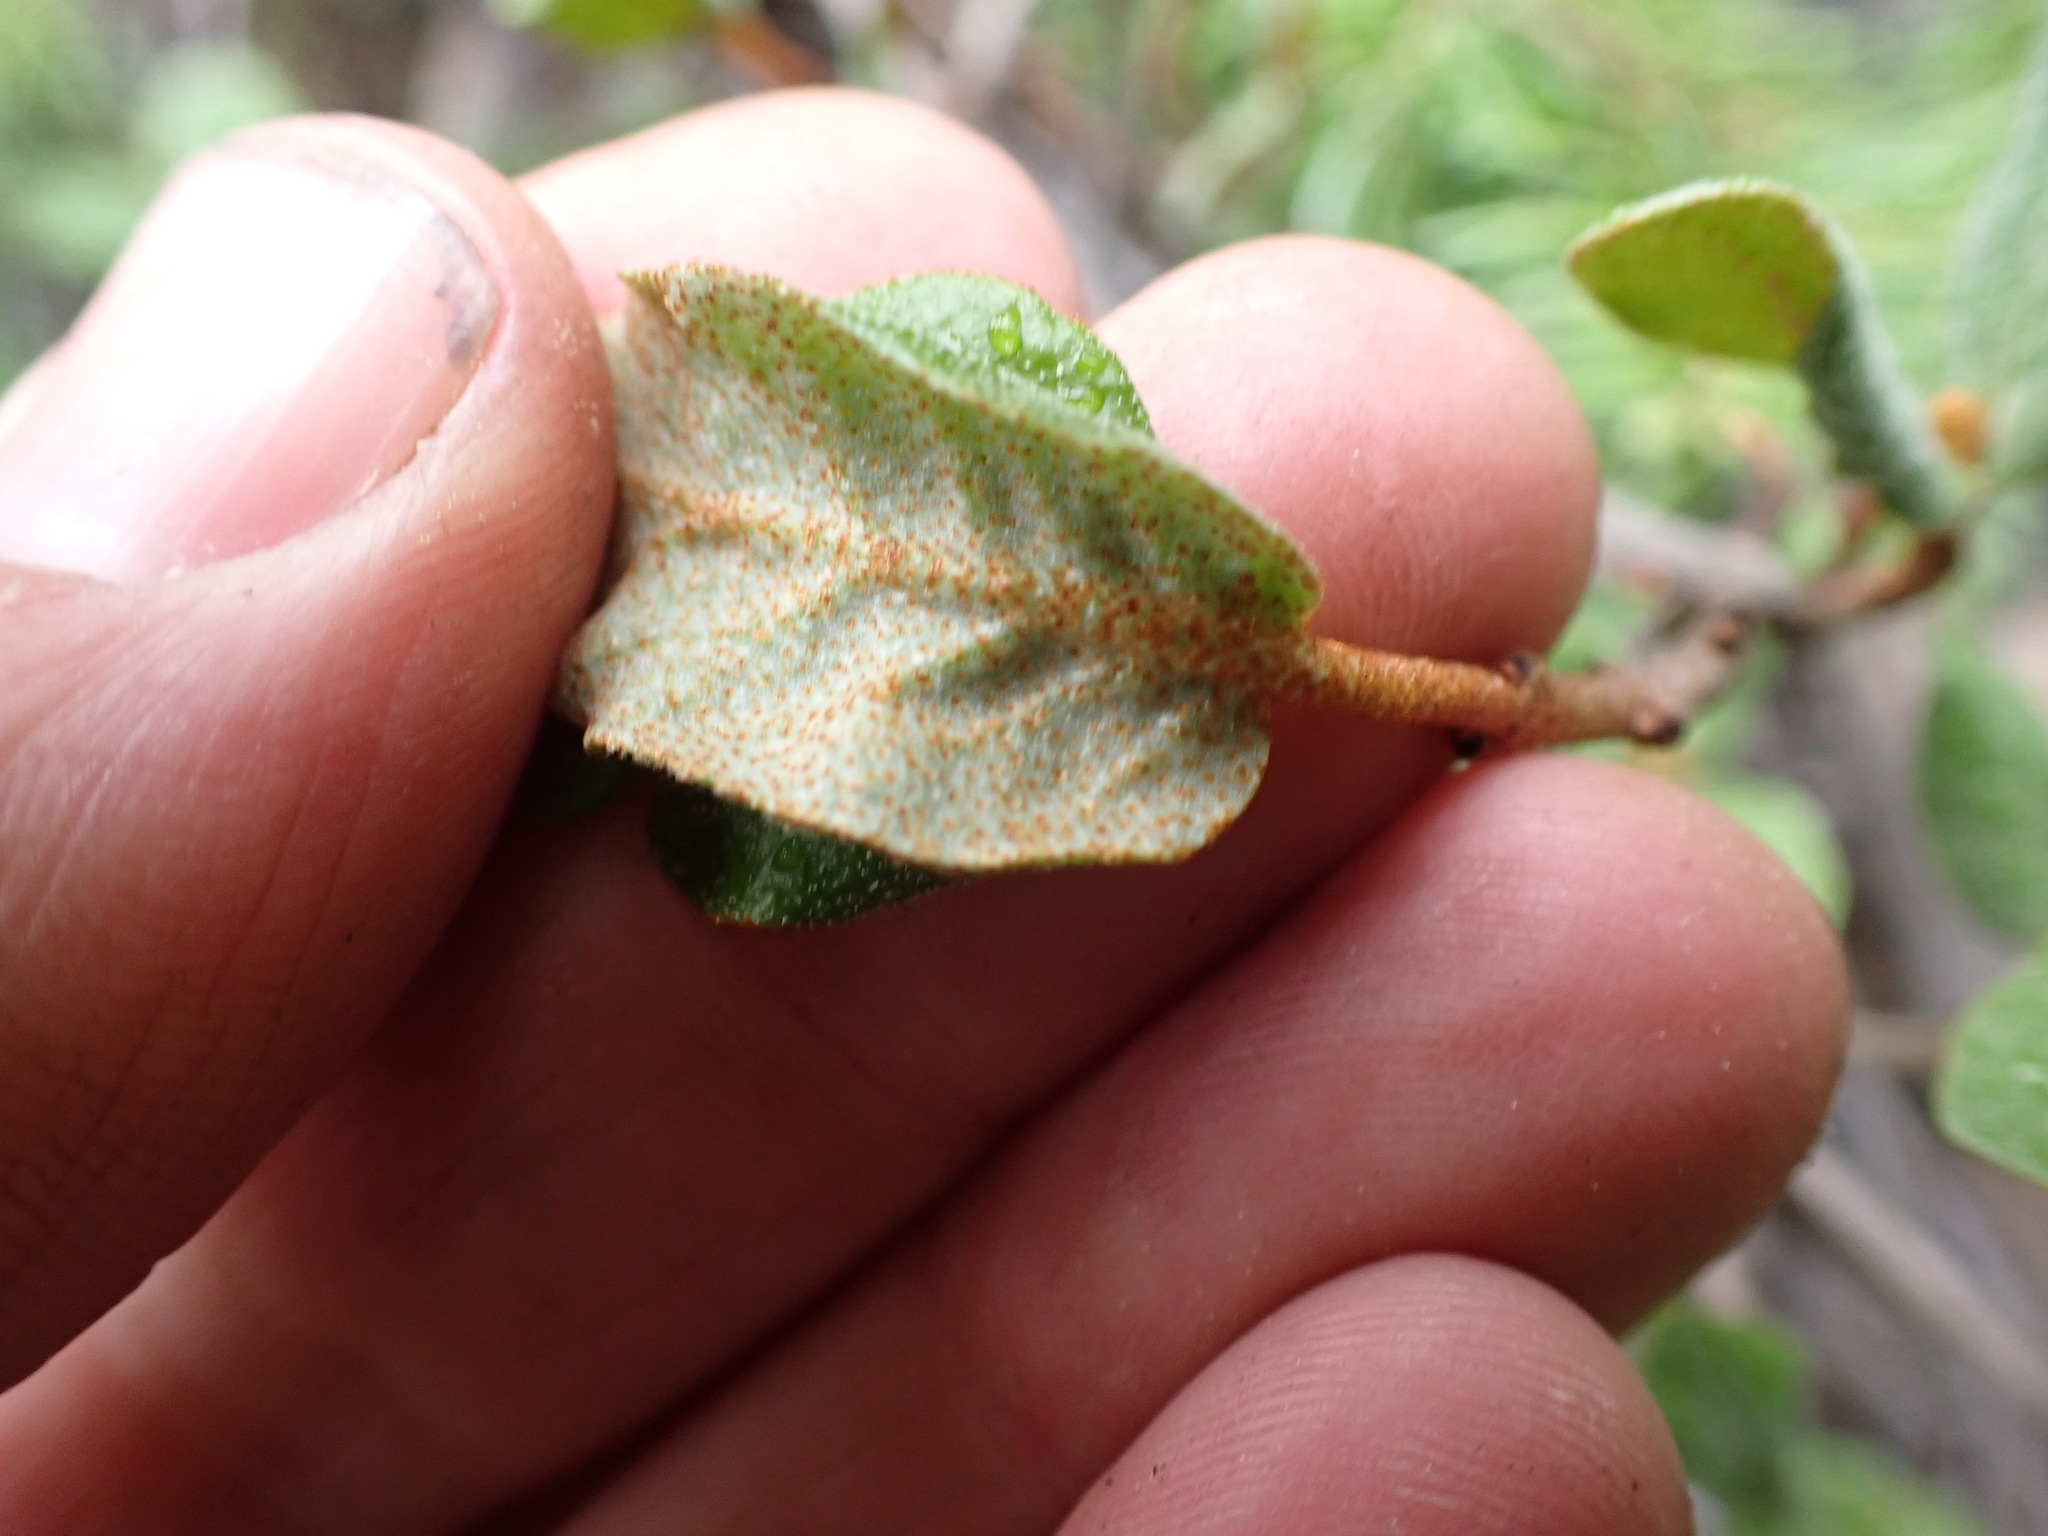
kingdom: Plantae
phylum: Tracheophyta
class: Magnoliopsida
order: Rosales
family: Elaeagnaceae
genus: Shepherdia
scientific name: Shepherdia canadensis
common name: Soapberry
